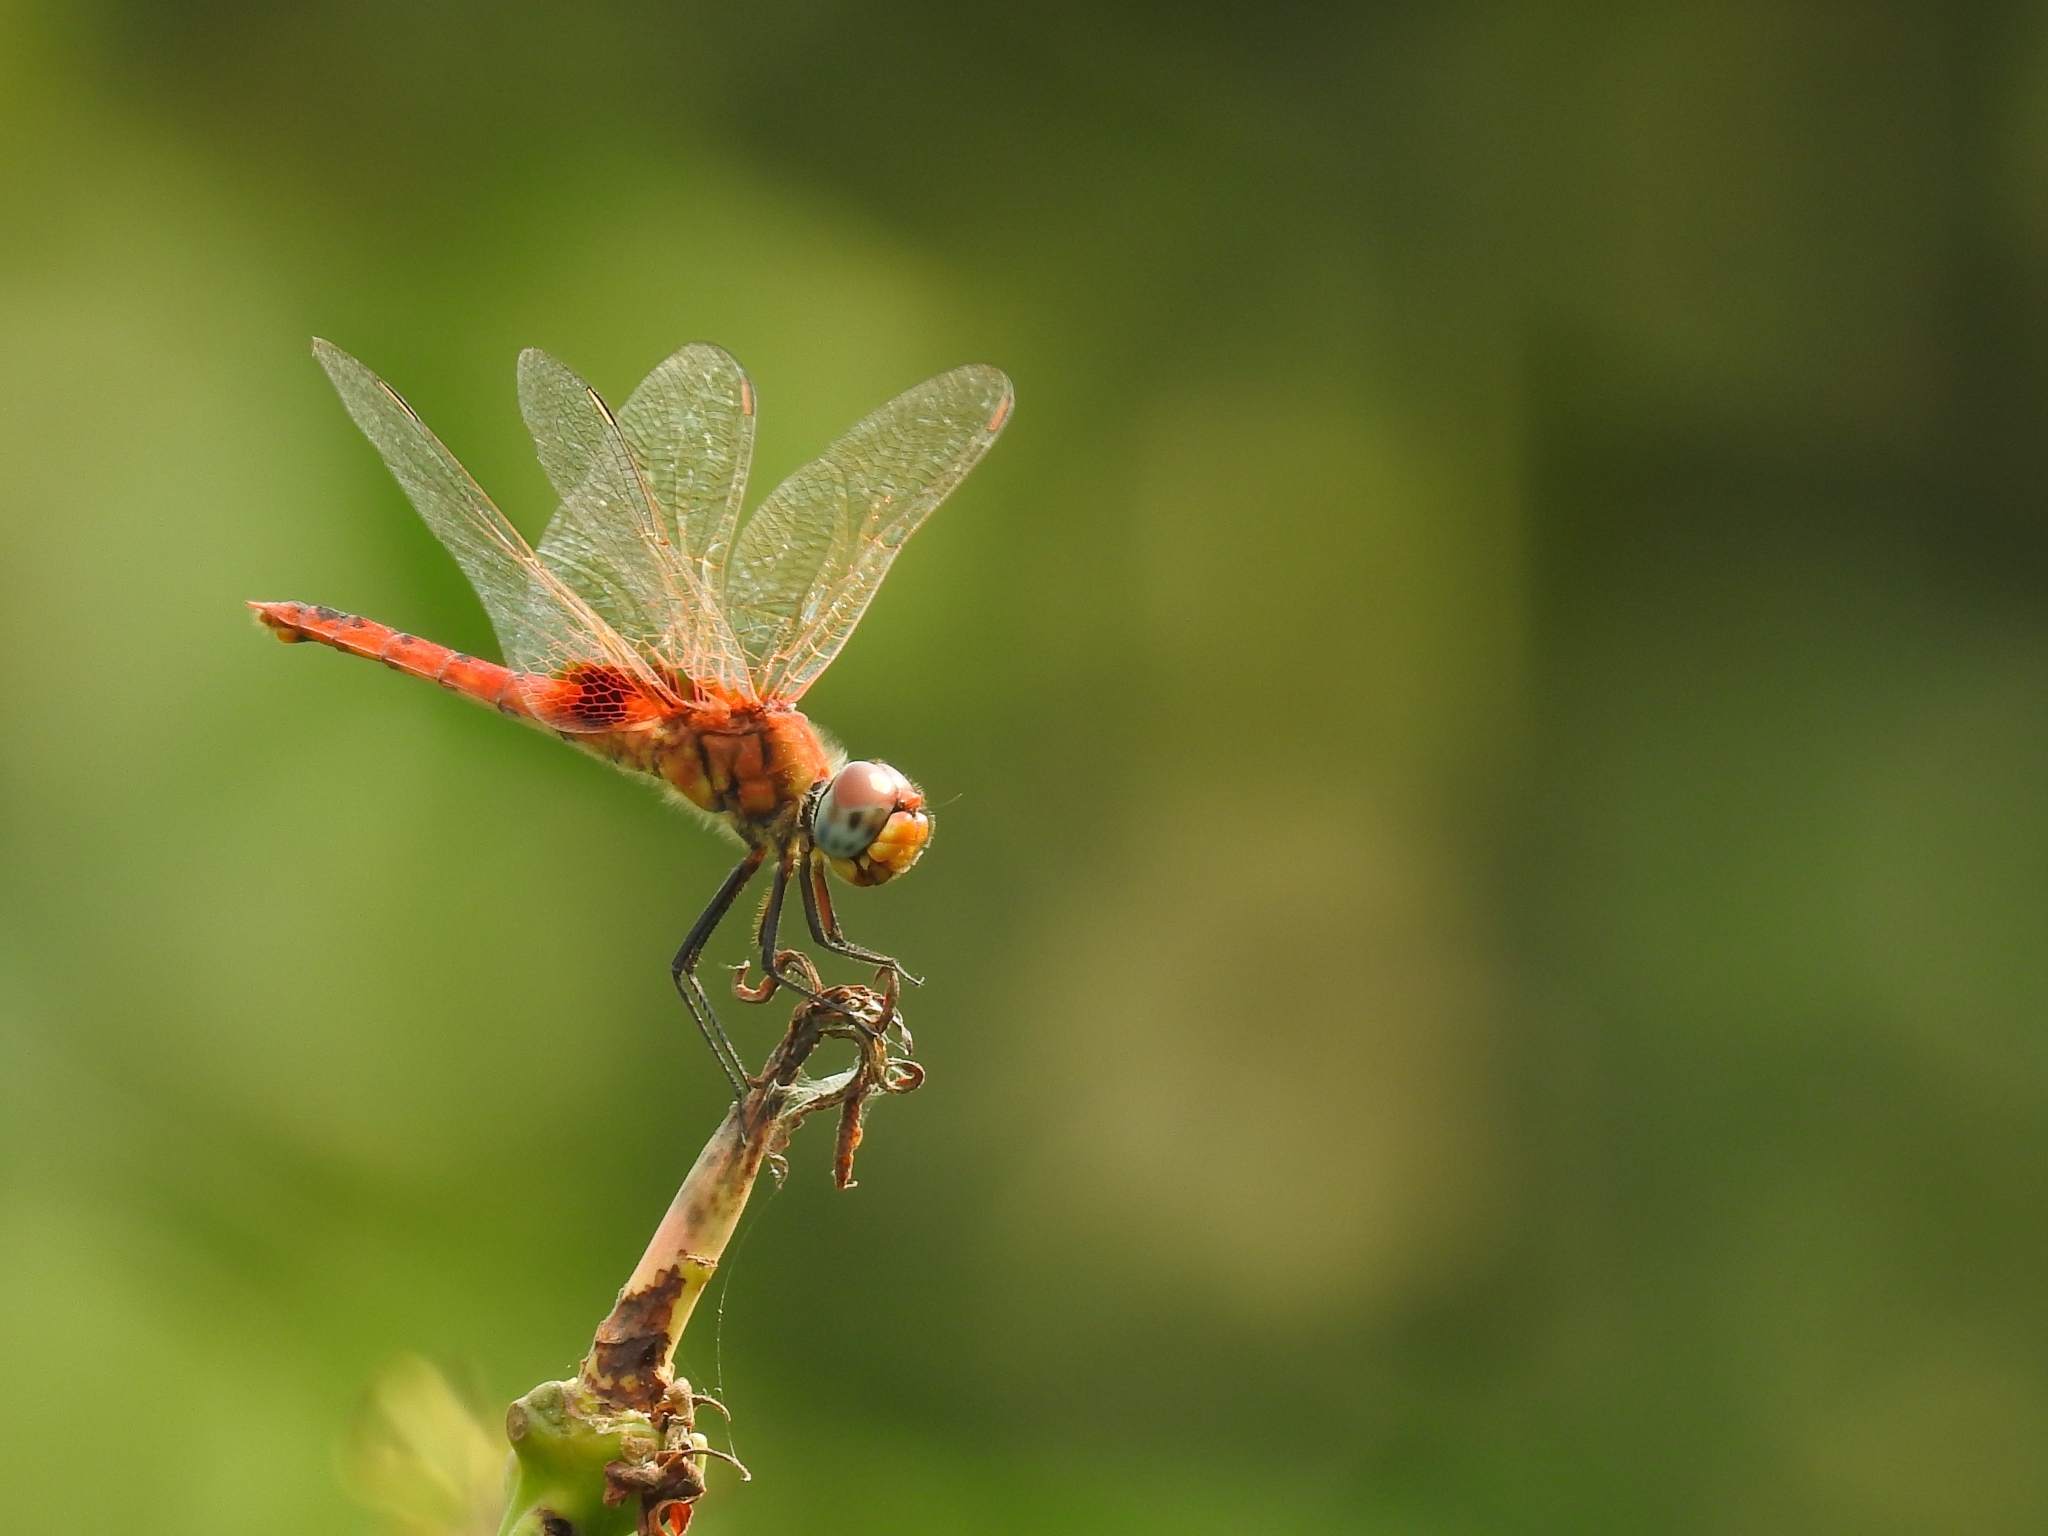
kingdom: Animalia
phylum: Arthropoda
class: Insecta
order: Odonata
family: Libellulidae
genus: Urothemis
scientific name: Urothemis signata
